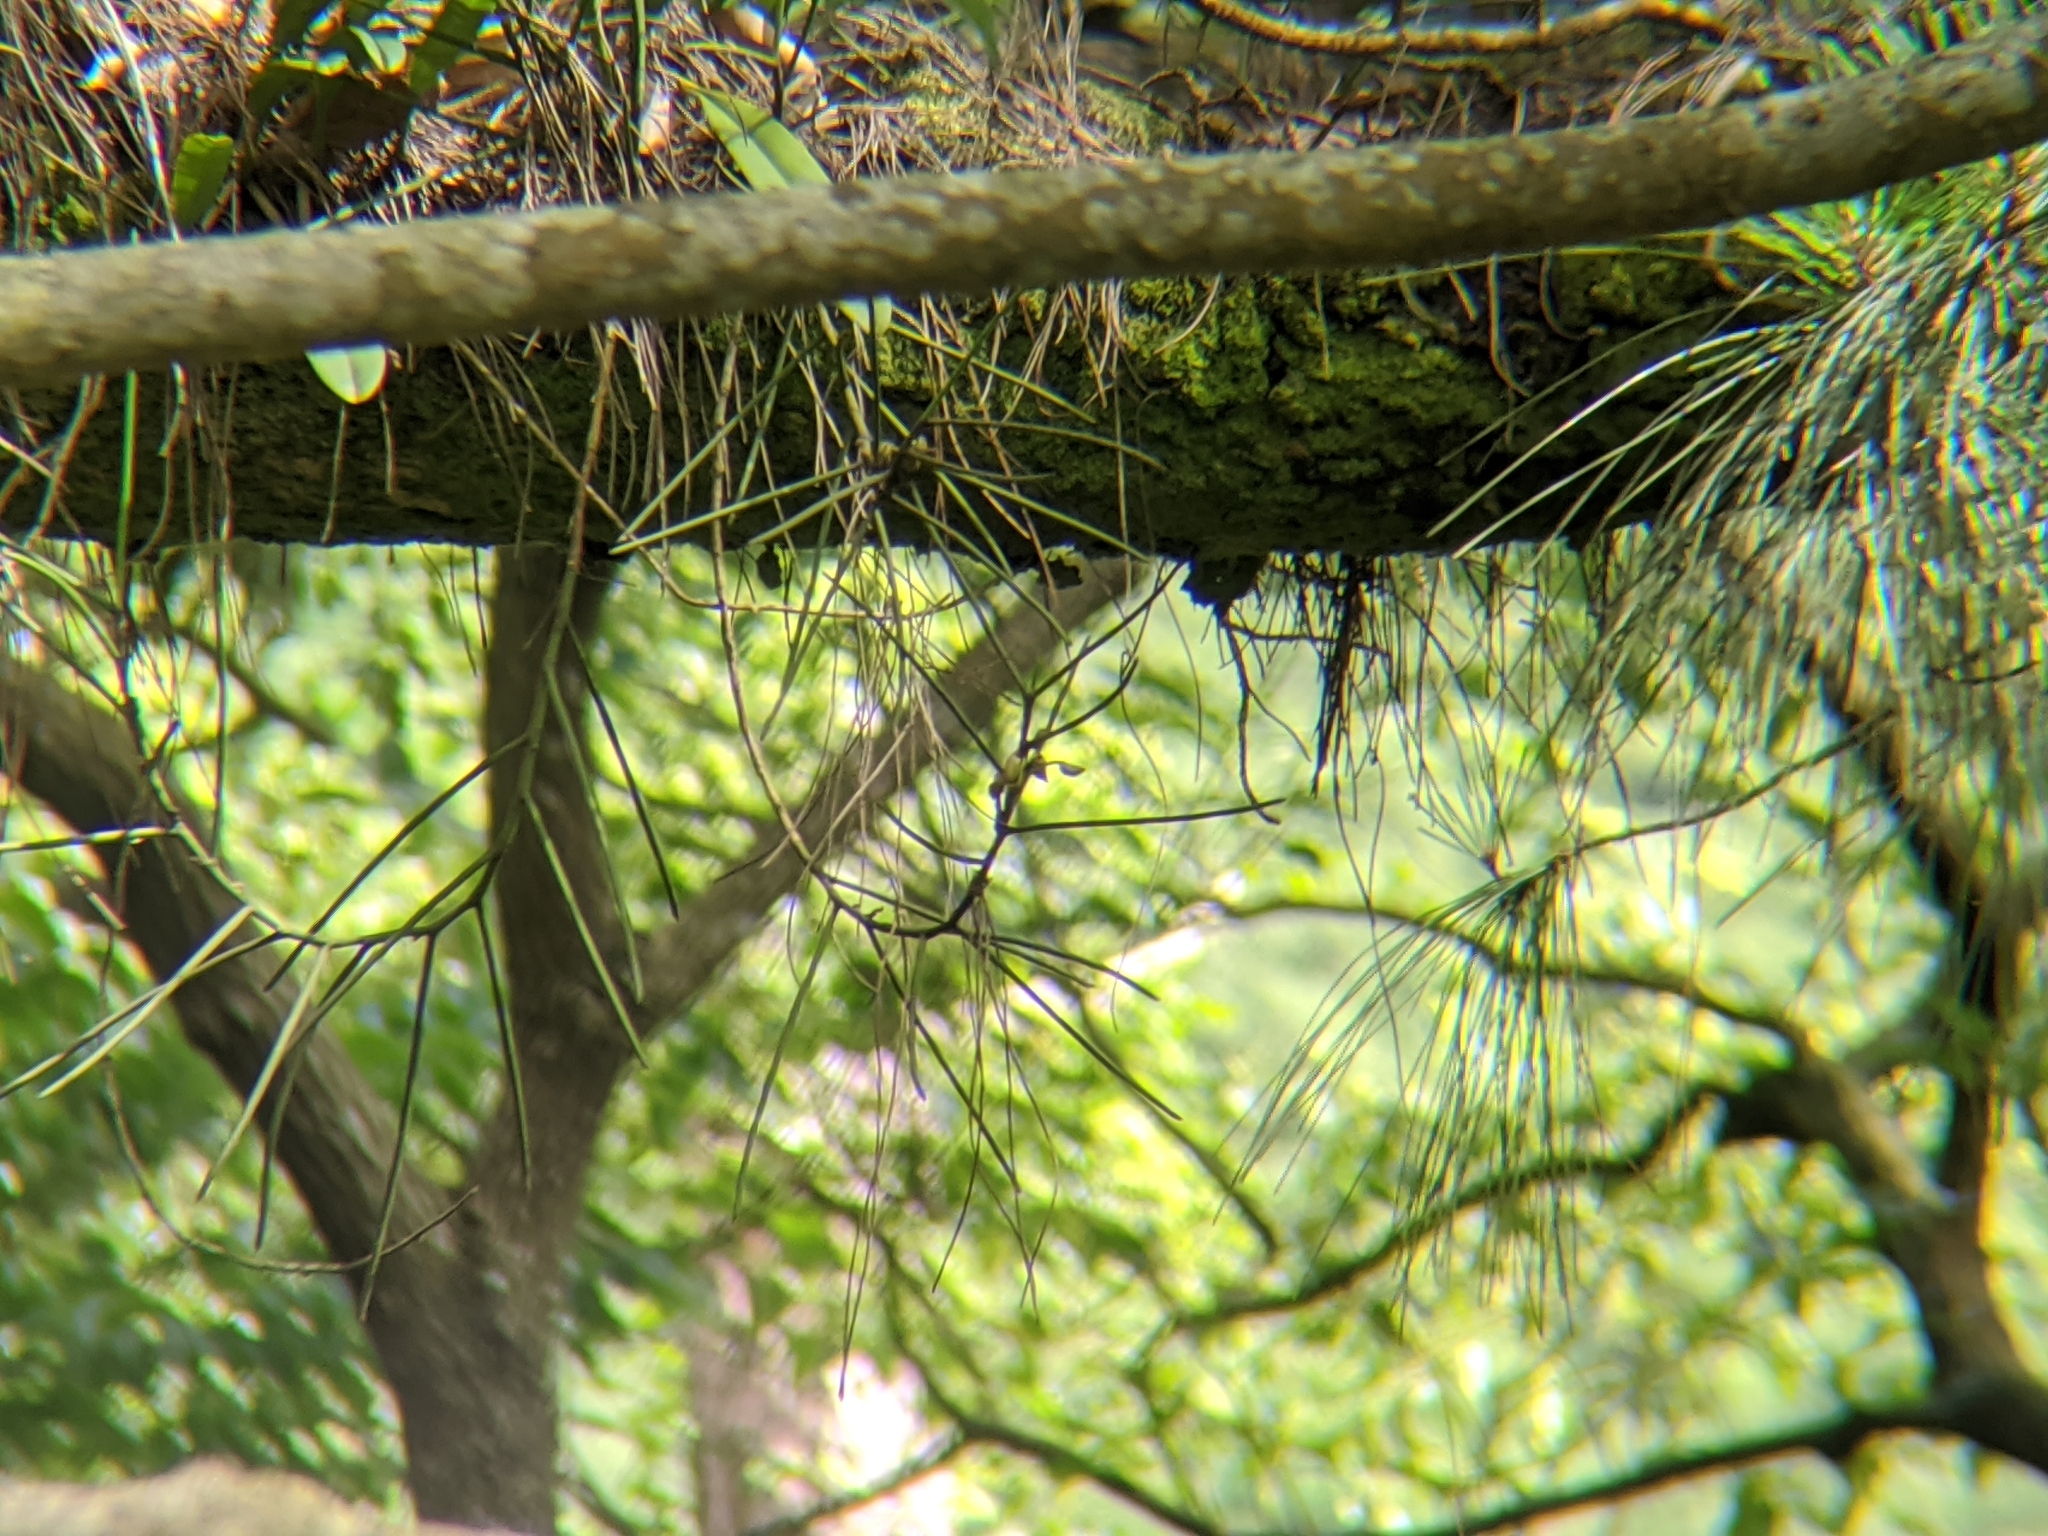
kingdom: Plantae
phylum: Tracheophyta
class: Liliopsida
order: Asparagales
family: Orchidaceae
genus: Luisia
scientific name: Luisia teres
